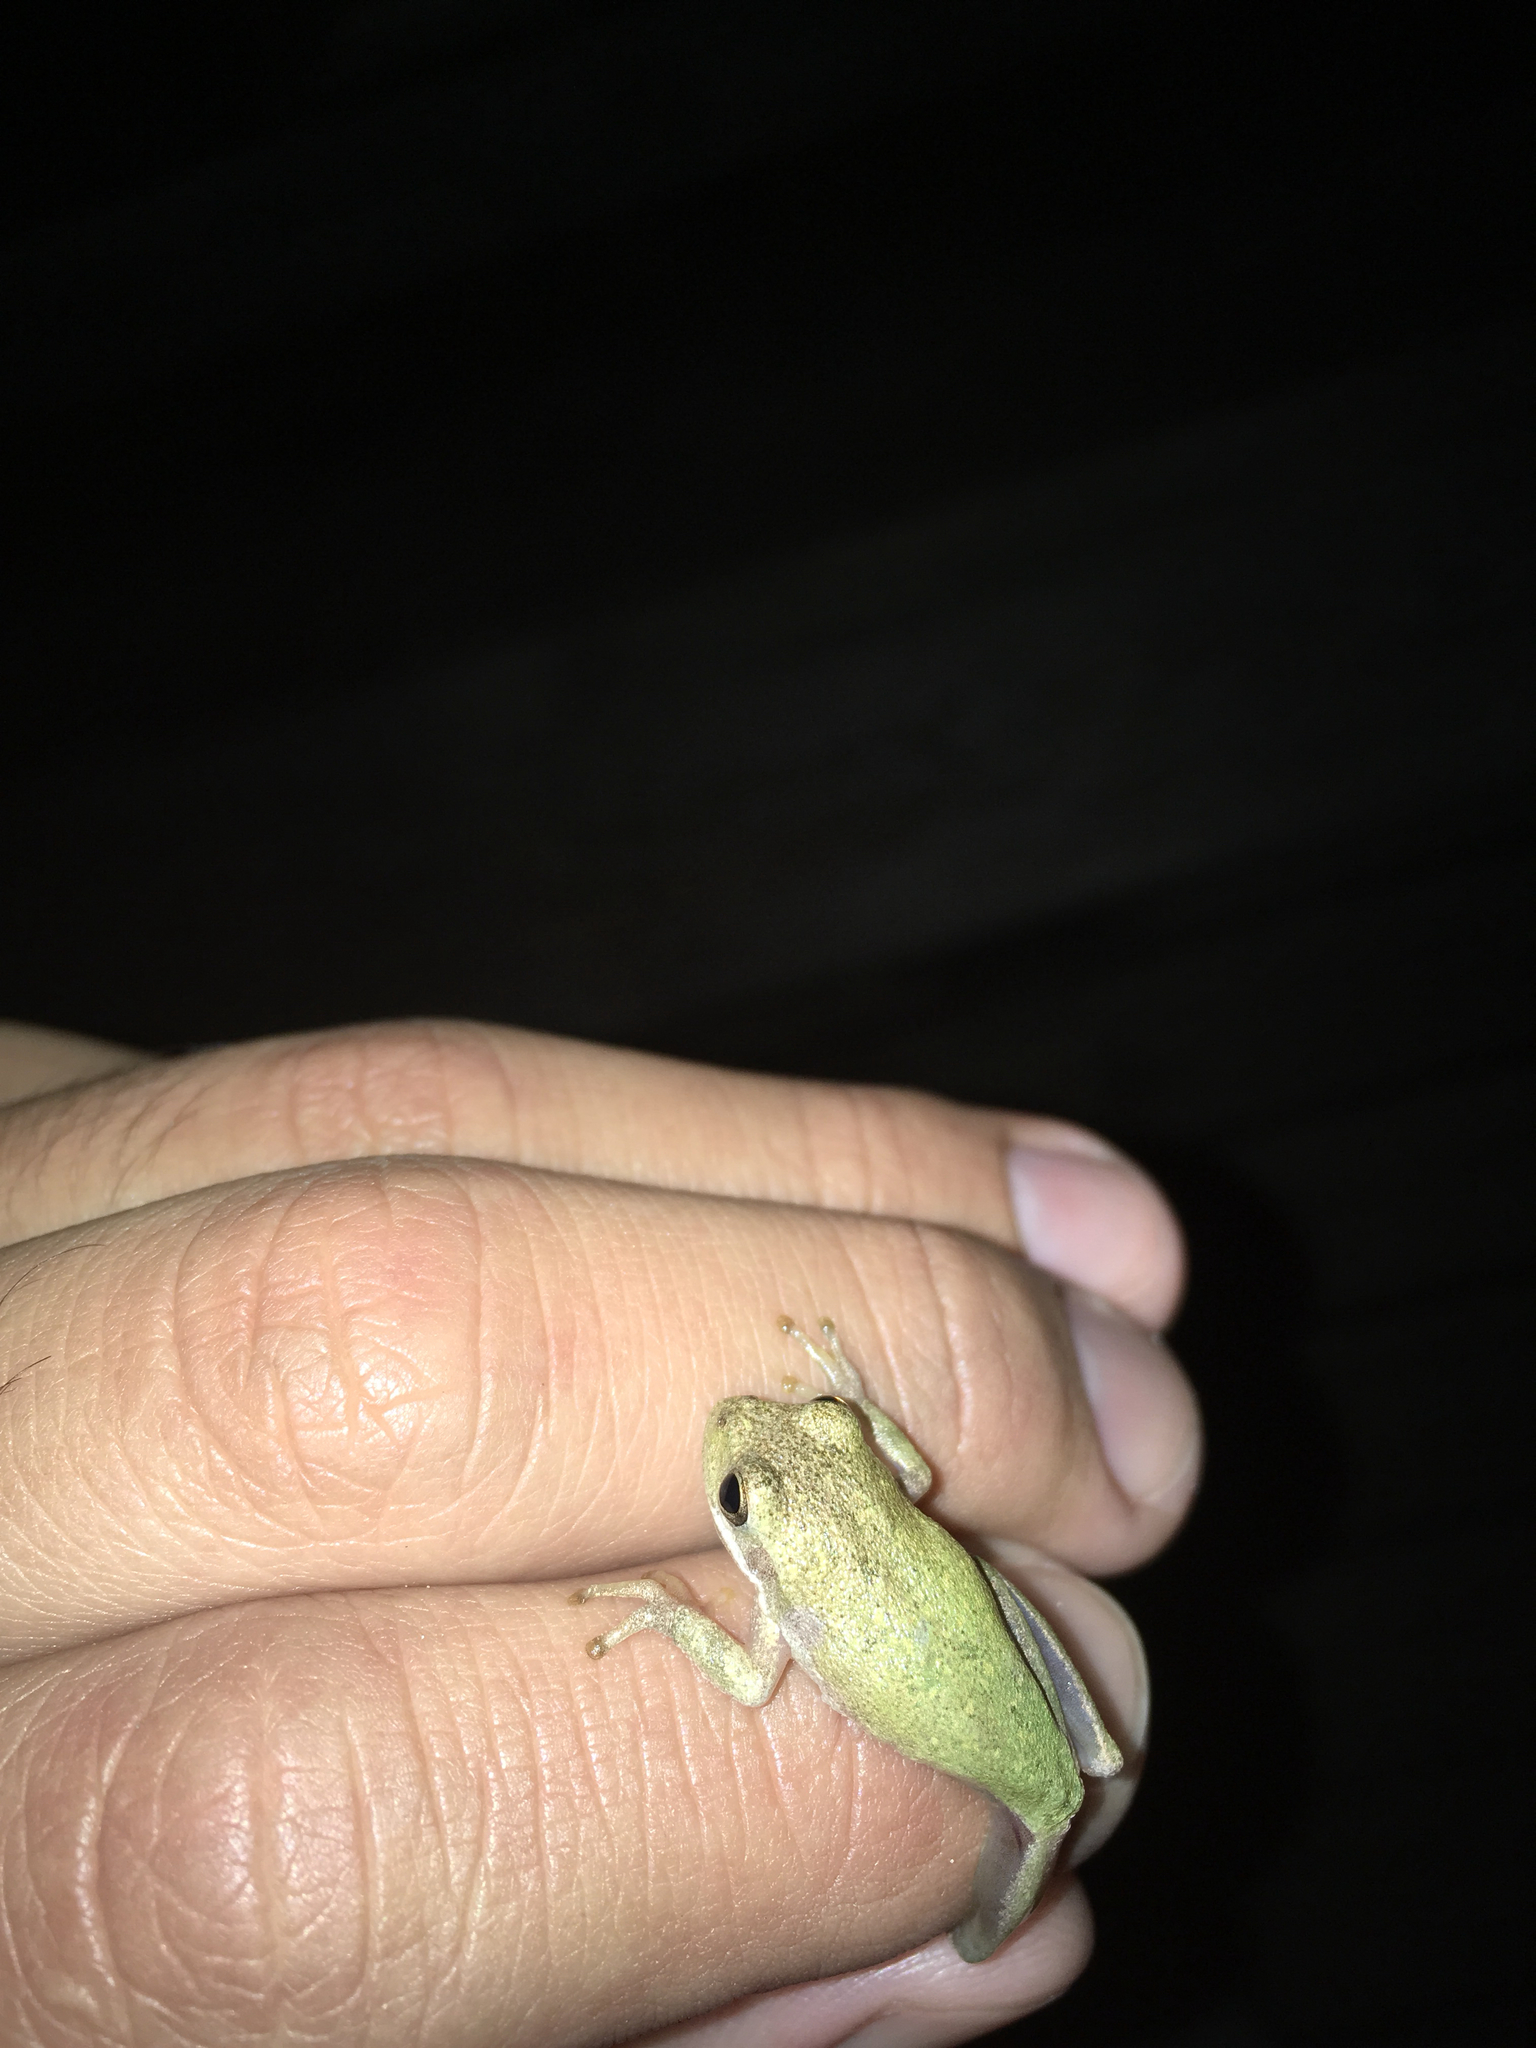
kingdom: Animalia
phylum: Chordata
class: Amphibia
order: Anura
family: Hylidae
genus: Dryophytes
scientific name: Dryophytes squirellus
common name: Squirrel treefrog
